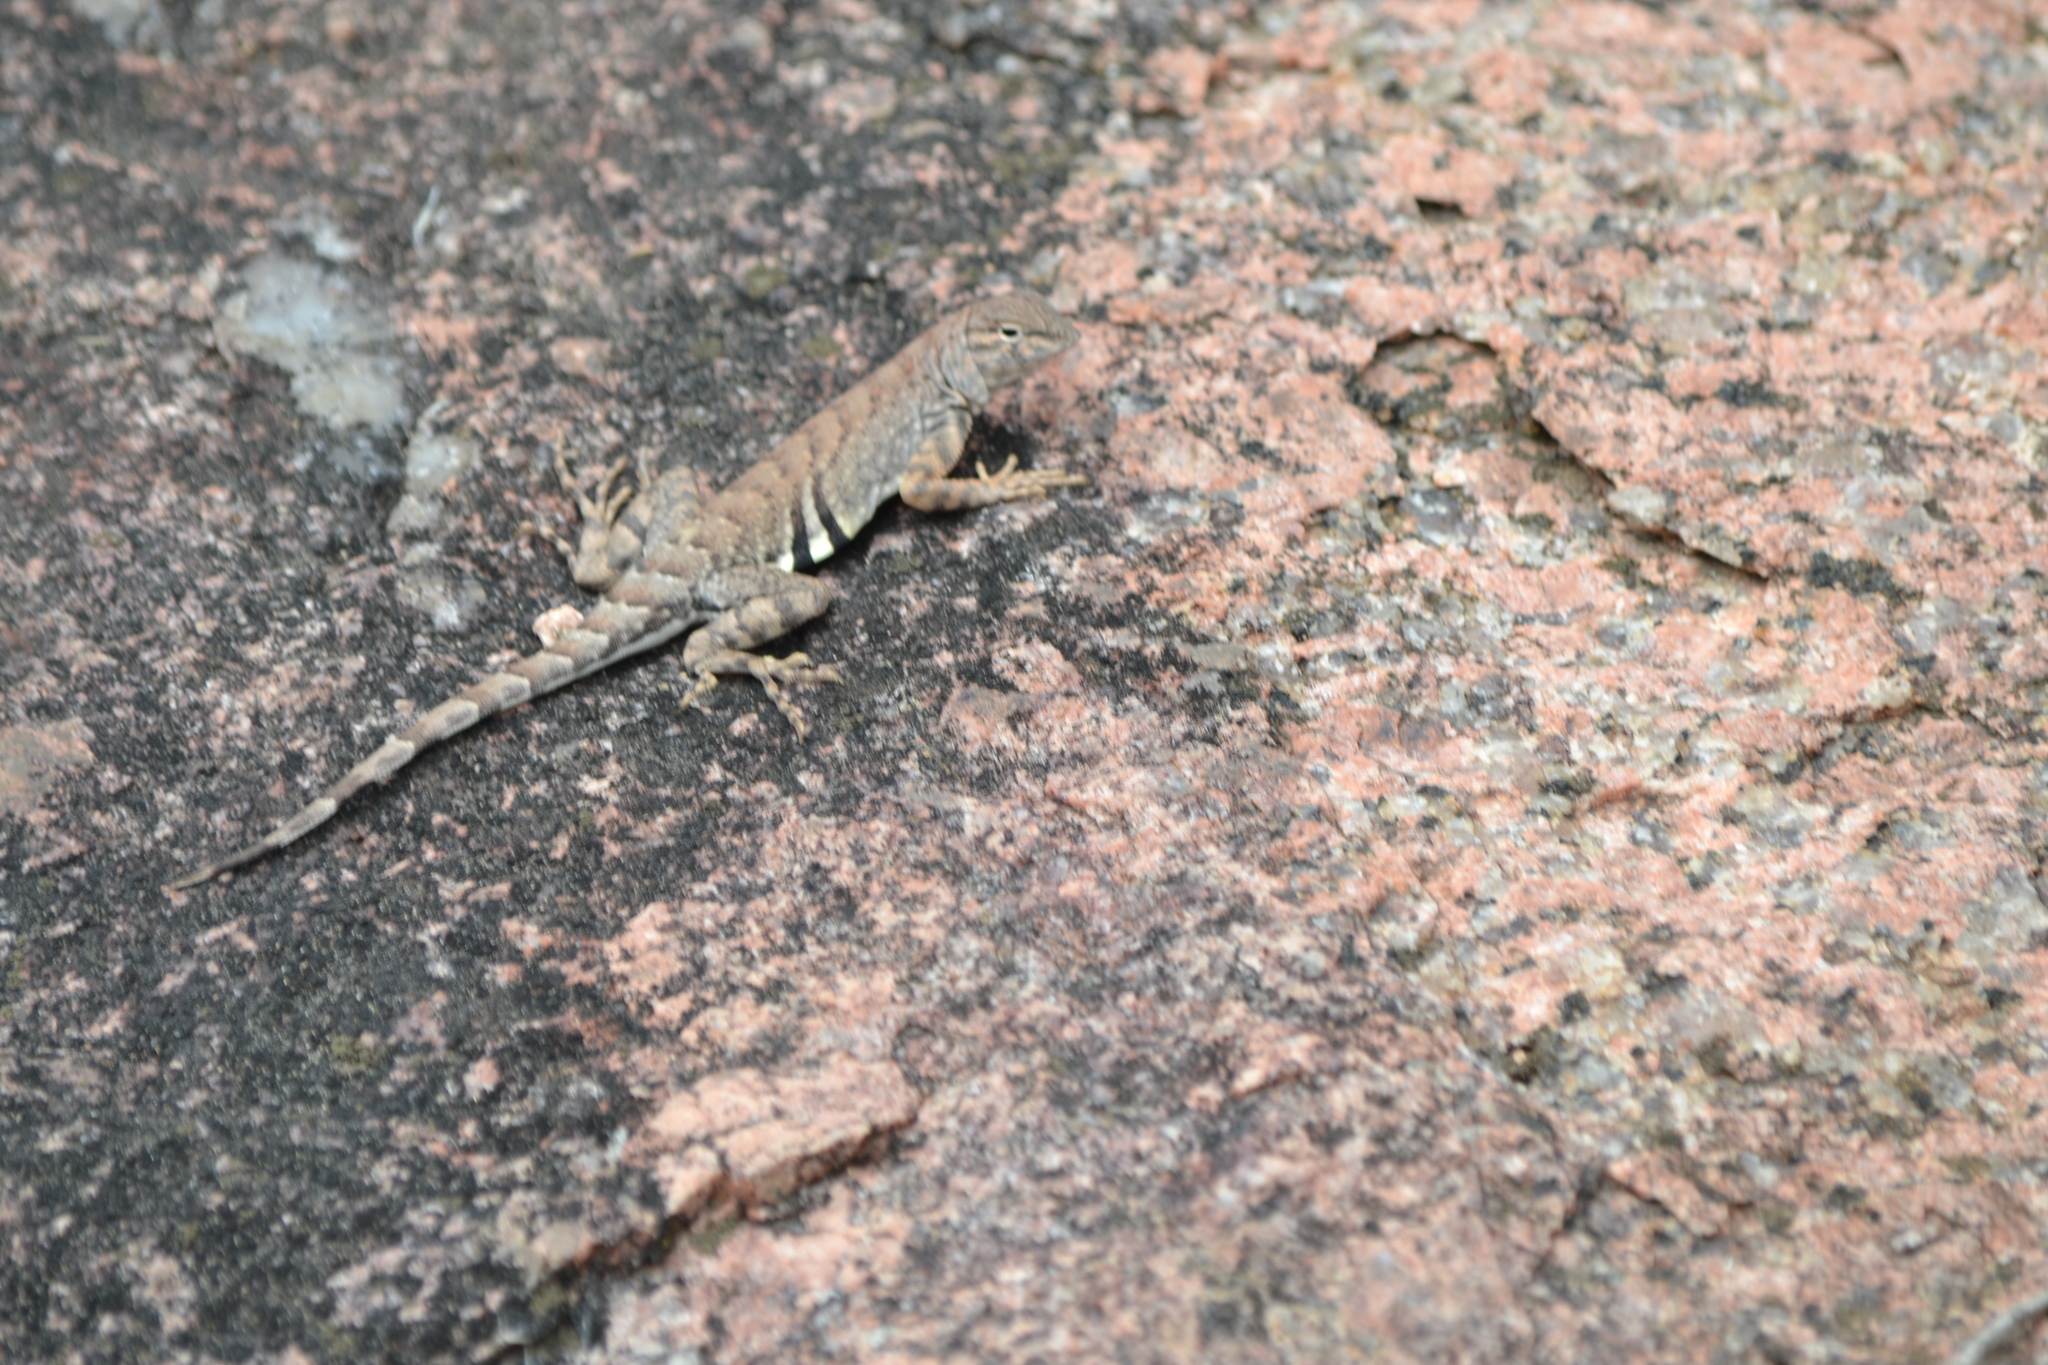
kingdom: Animalia
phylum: Chordata
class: Squamata
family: Phrynosomatidae
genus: Cophosaurus
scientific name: Cophosaurus texanus
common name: Greater earless lizard
